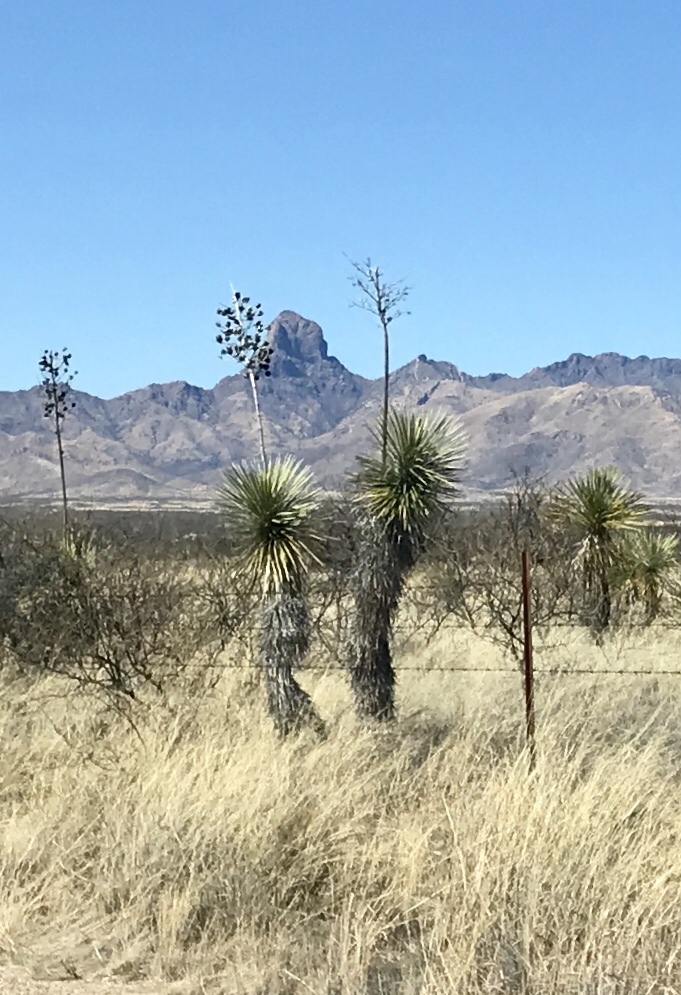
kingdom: Plantae
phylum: Tracheophyta
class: Liliopsida
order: Asparagales
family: Asparagaceae
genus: Yucca
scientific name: Yucca elata
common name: Palmella
